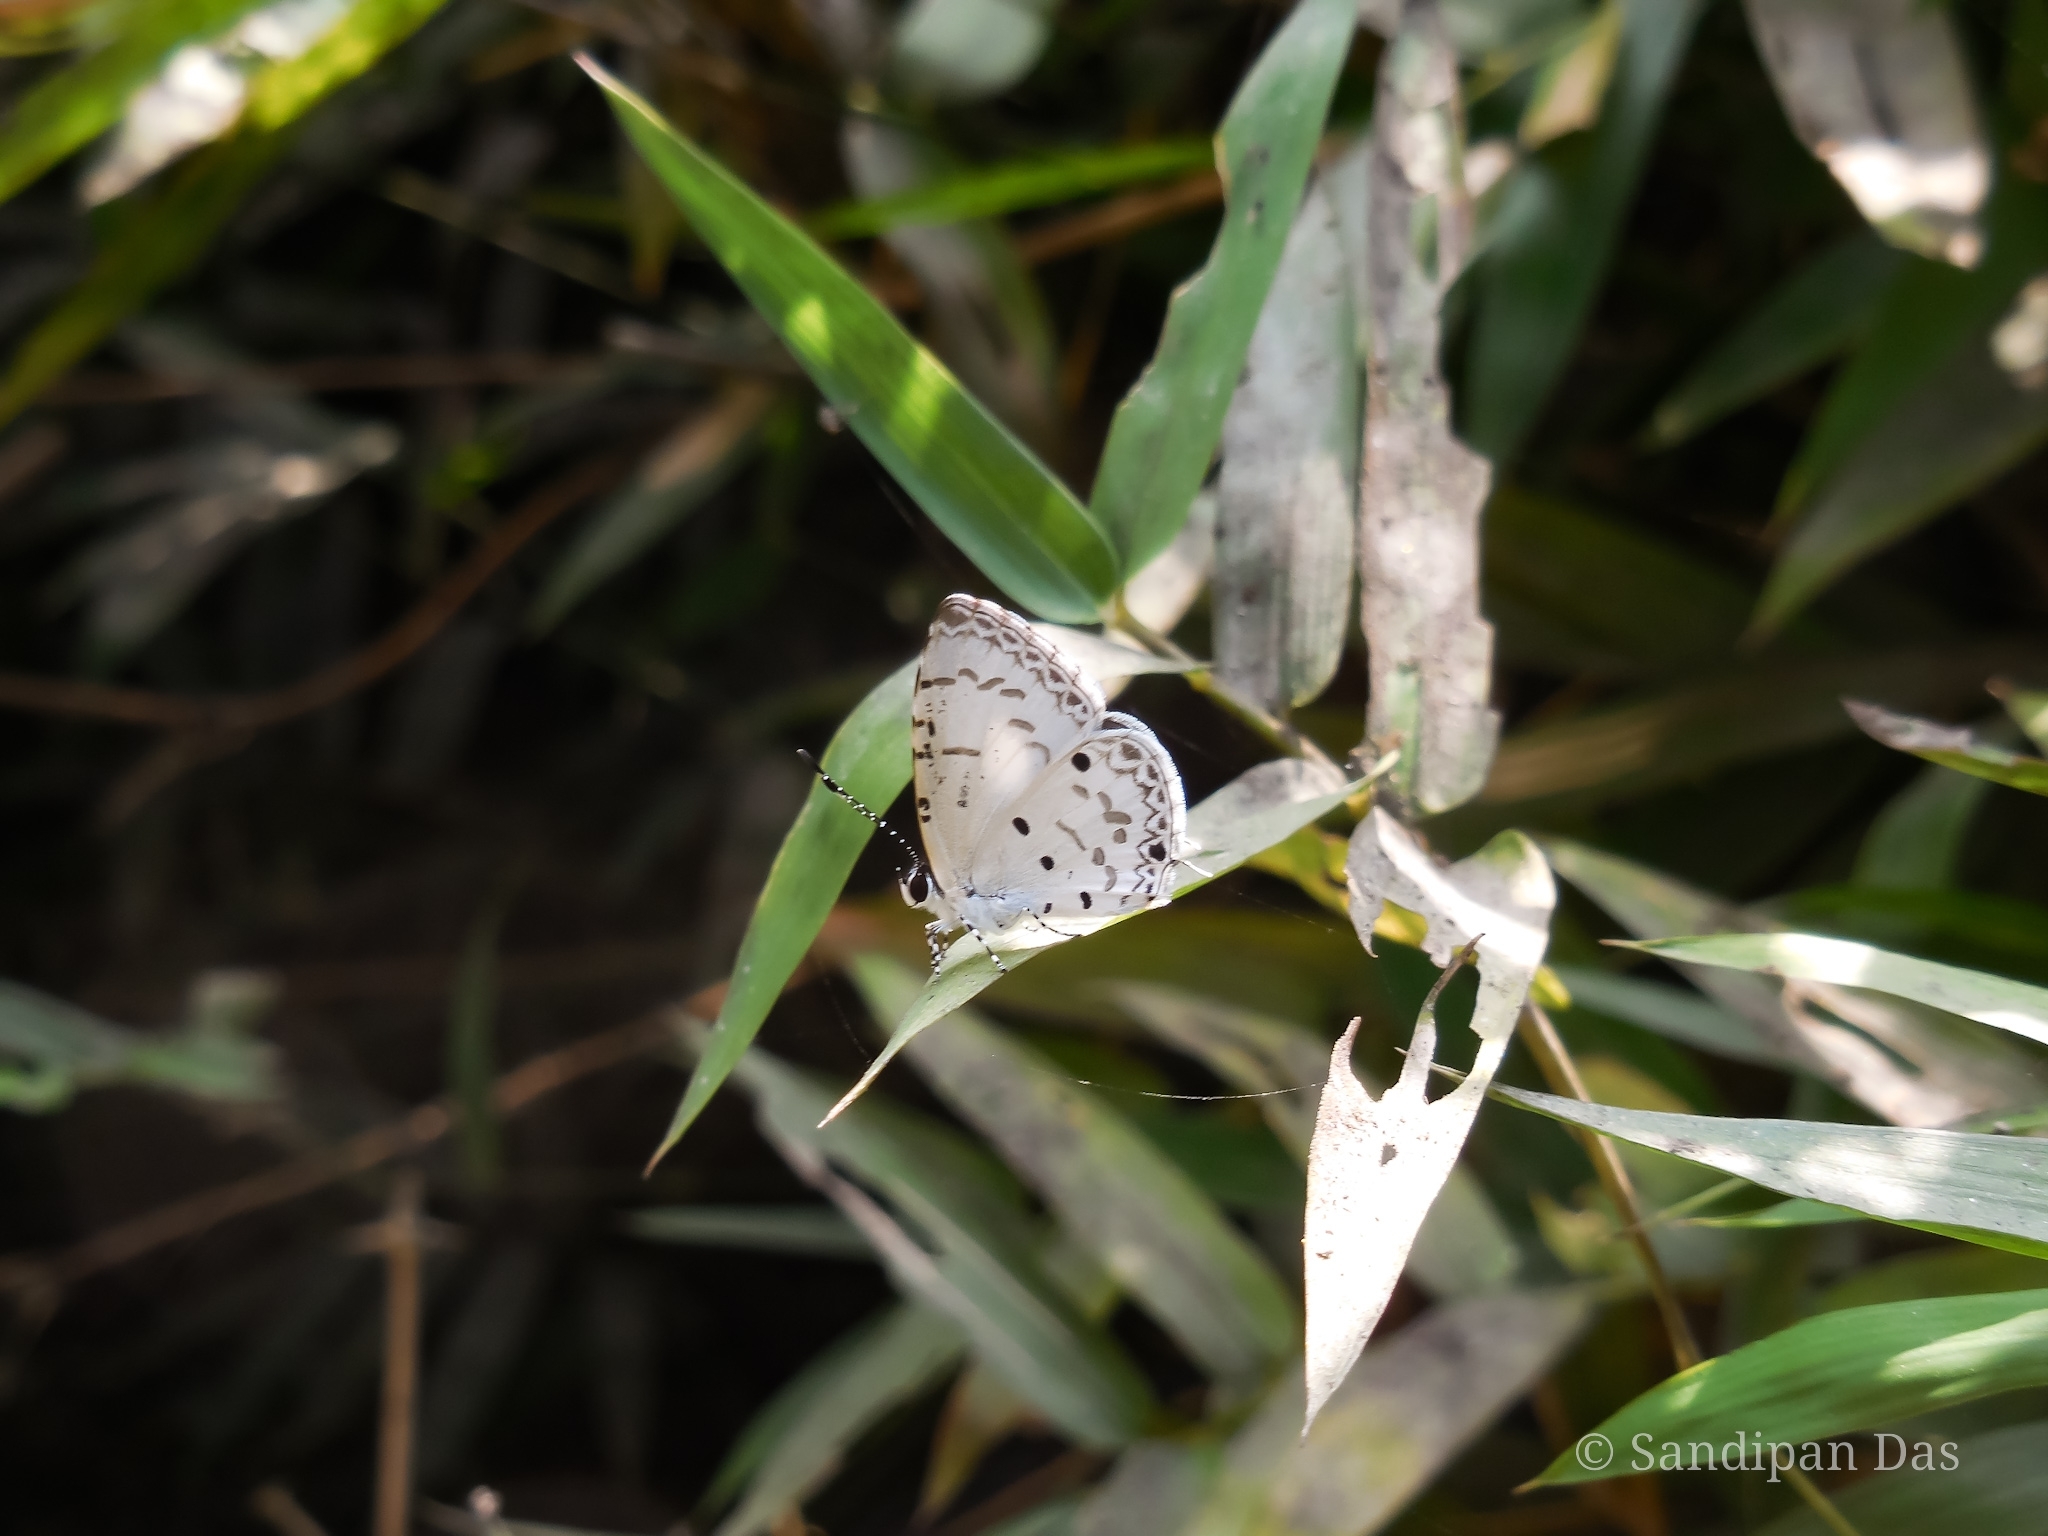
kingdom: Animalia
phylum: Arthropoda
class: Insecta
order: Lepidoptera
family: Lycaenidae
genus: Megisba
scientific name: Megisba malaya
